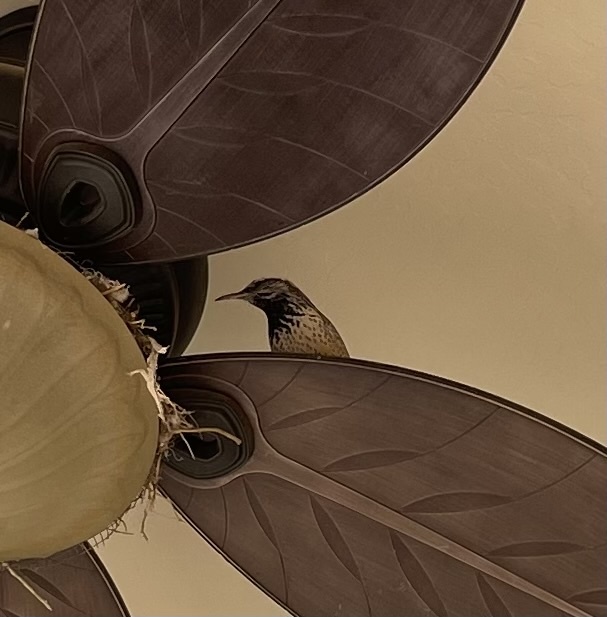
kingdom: Animalia
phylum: Chordata
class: Aves
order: Passeriformes
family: Troglodytidae
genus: Campylorhynchus
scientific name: Campylorhynchus brunneicapillus
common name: Cactus wren
